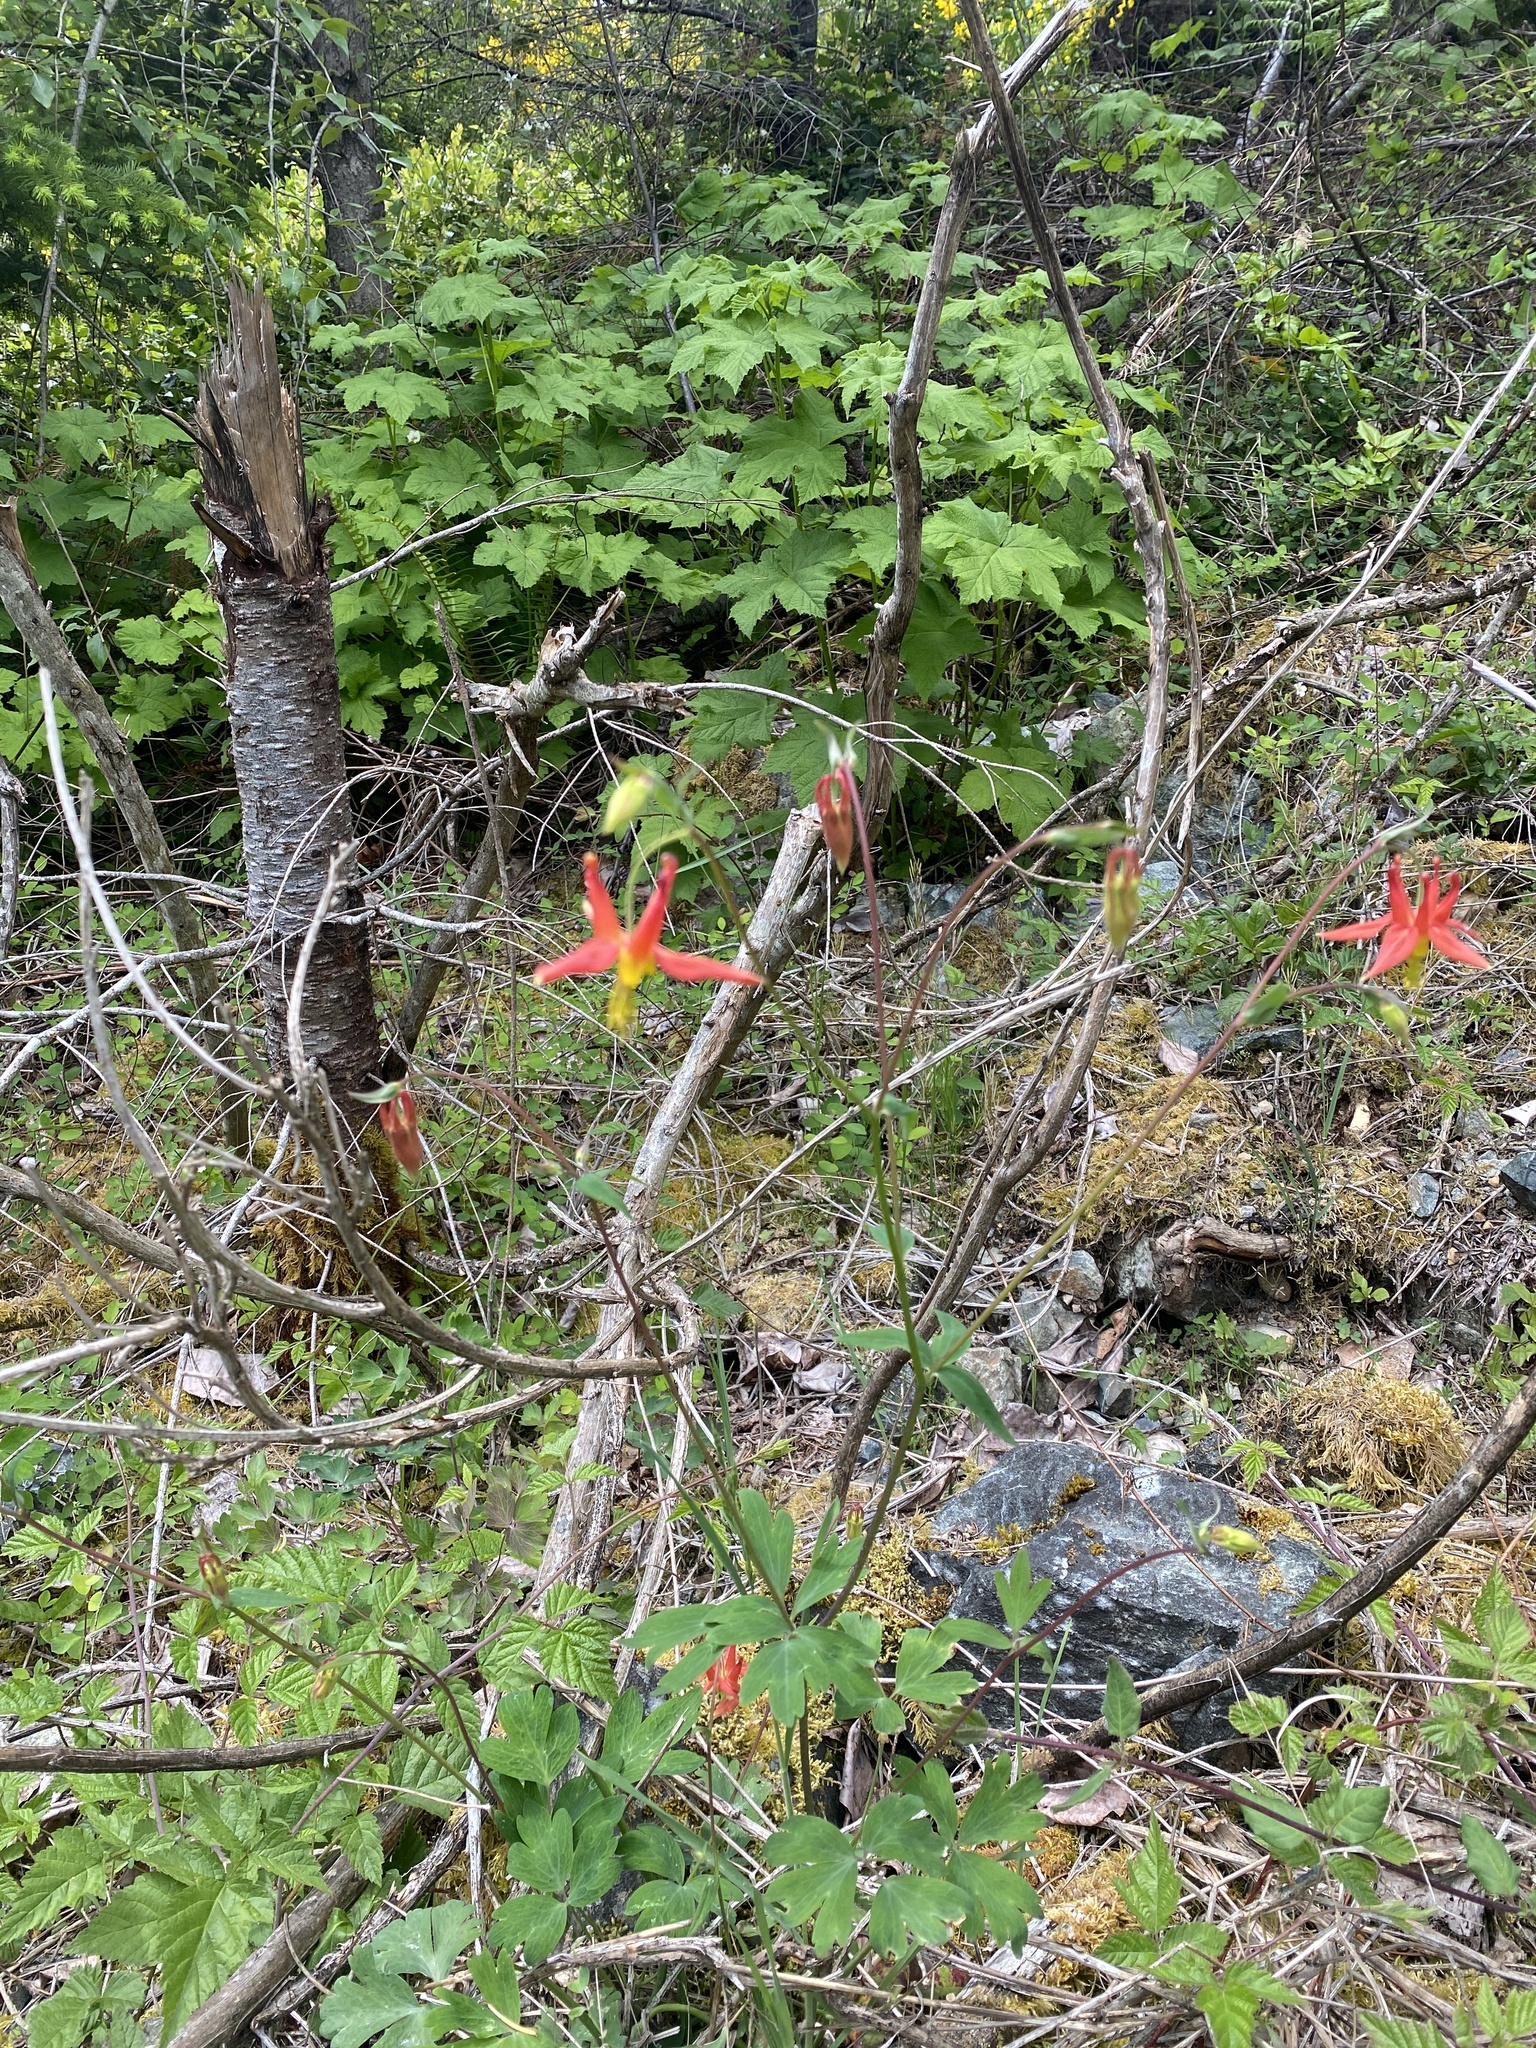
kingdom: Plantae
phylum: Tracheophyta
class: Magnoliopsida
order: Ranunculales
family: Ranunculaceae
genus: Aquilegia
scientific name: Aquilegia formosa
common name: Sitka columbine
